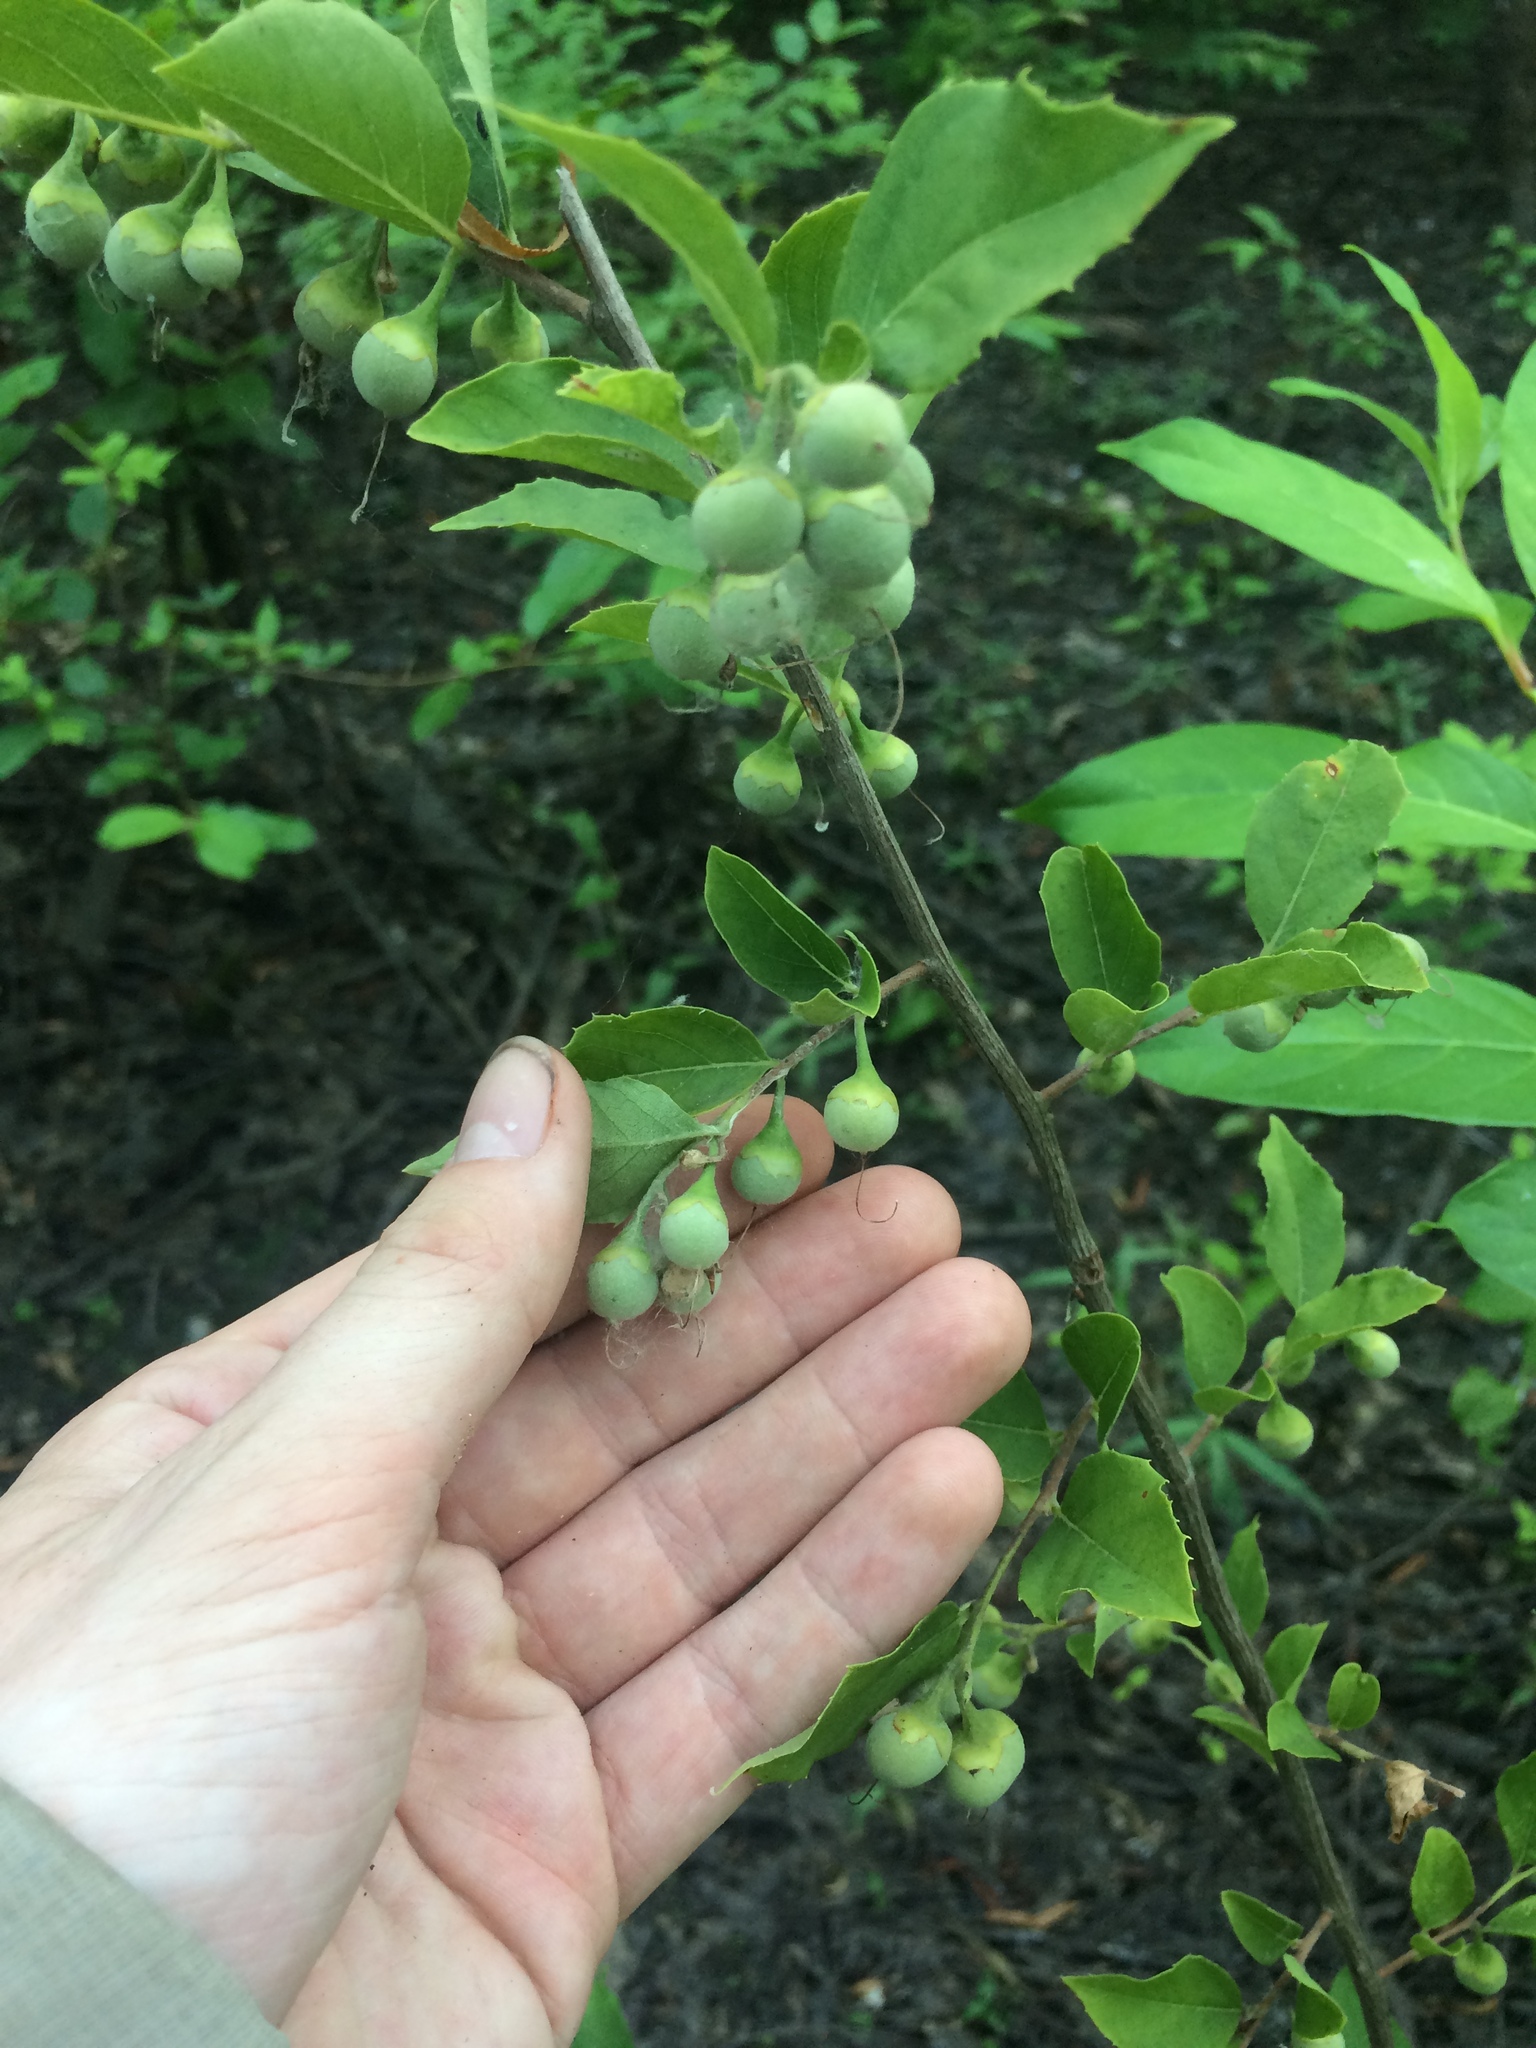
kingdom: Plantae
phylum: Tracheophyta
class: Magnoliopsida
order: Ericales
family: Styracaceae
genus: Styrax
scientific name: Styrax americanus
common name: American snowbell
